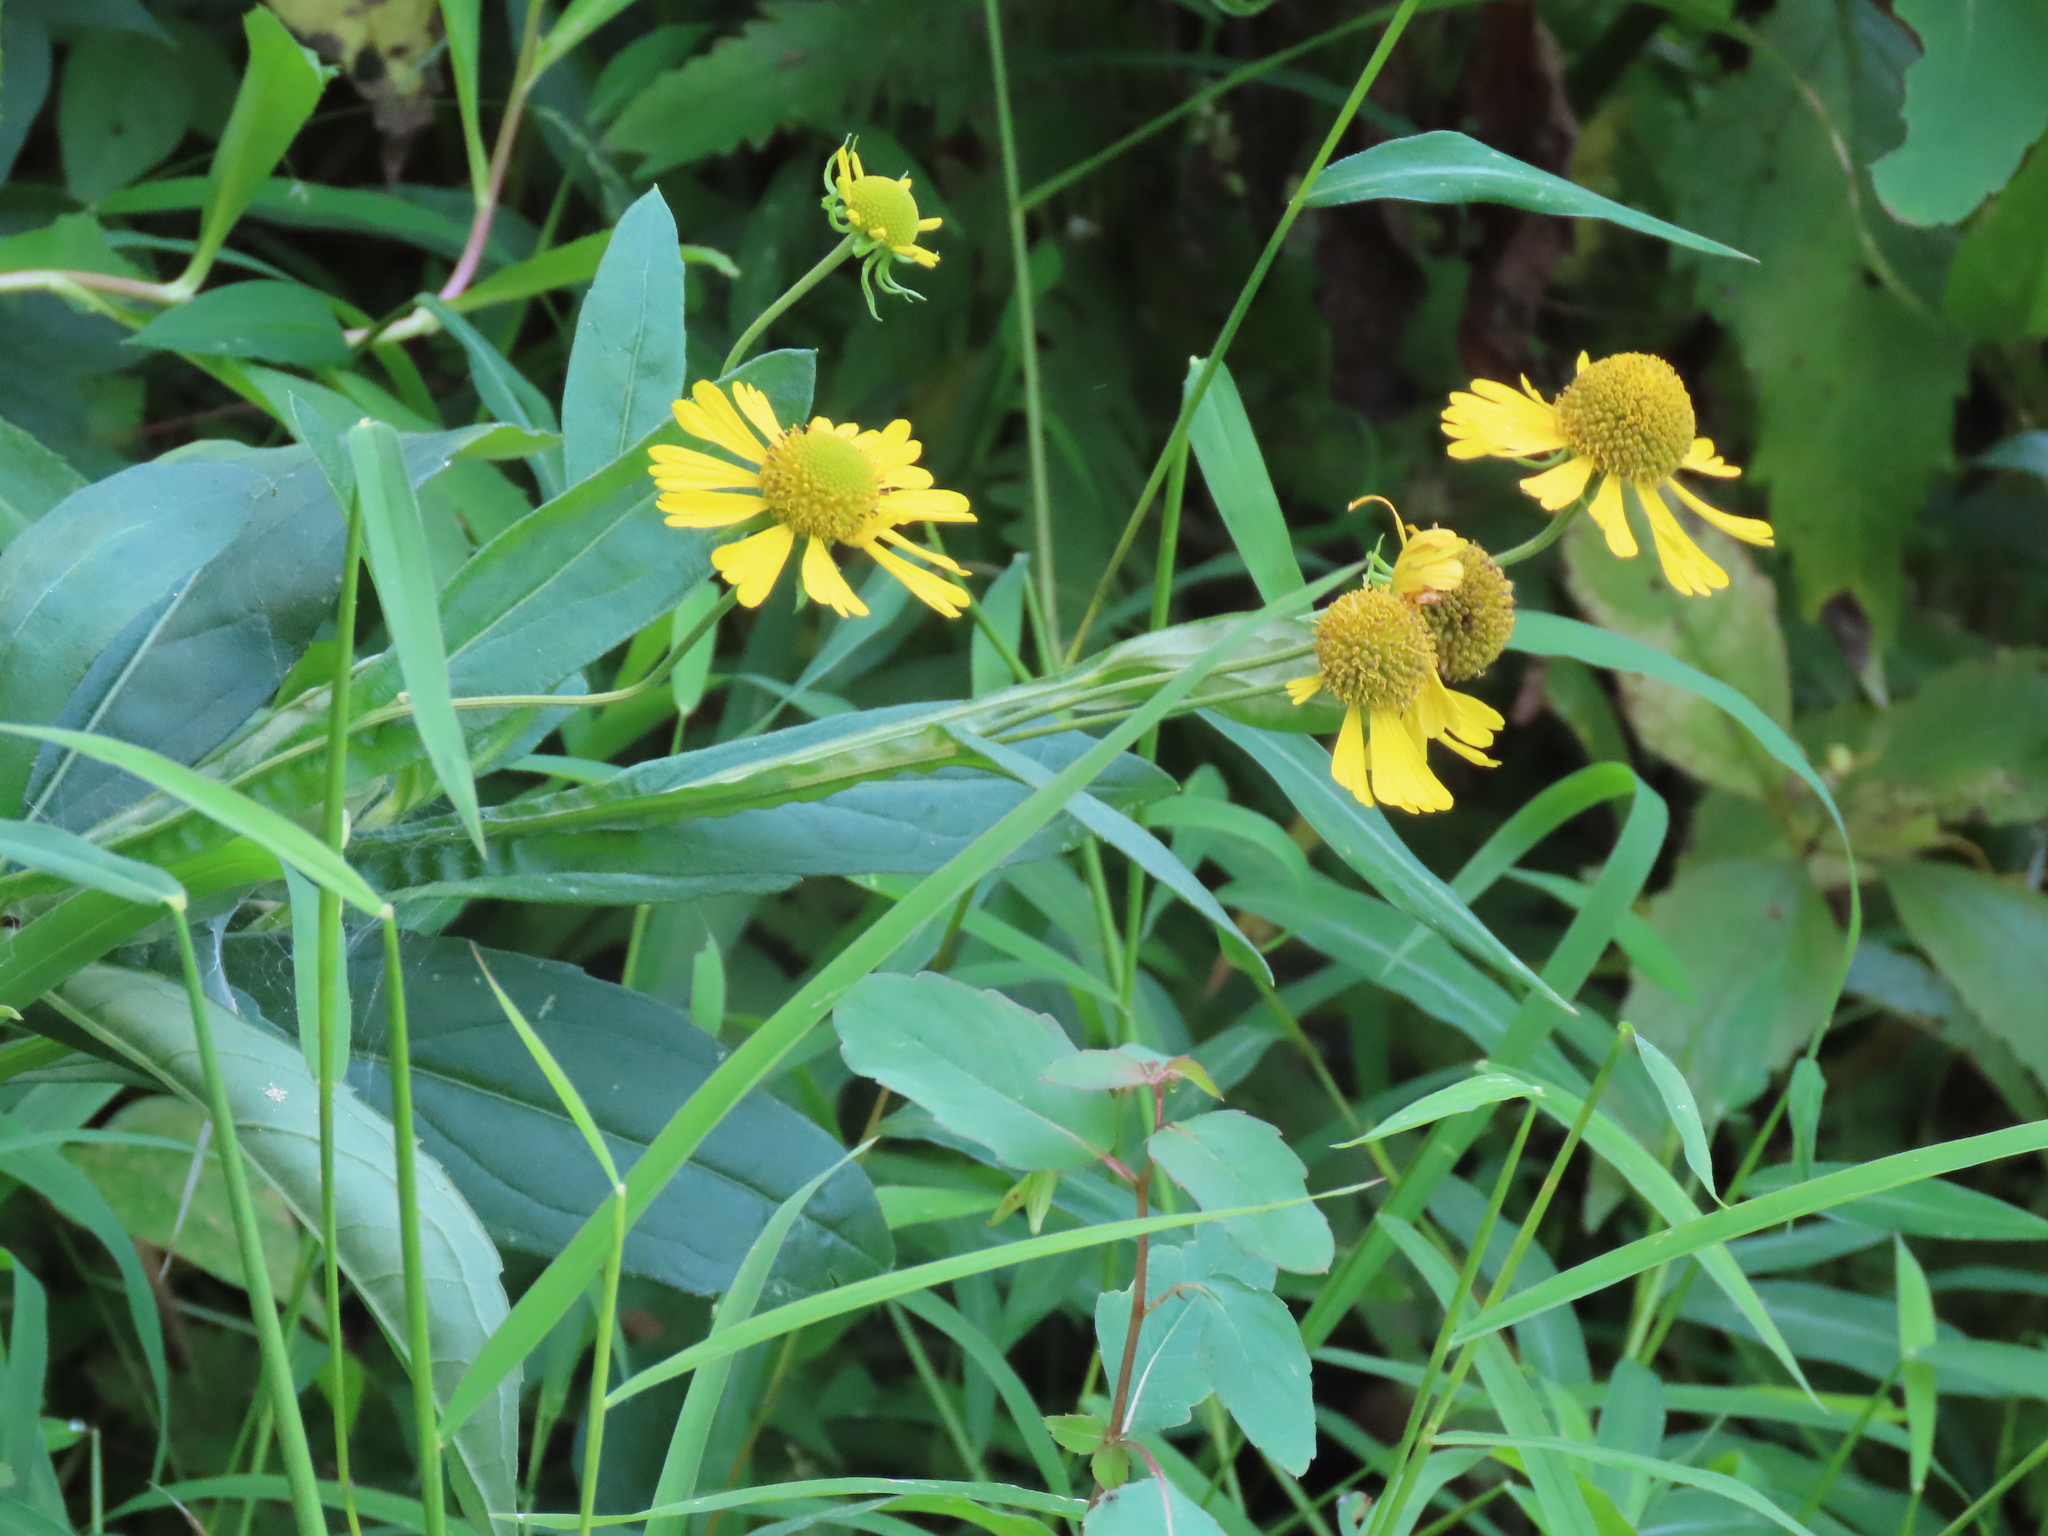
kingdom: Plantae
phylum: Tracheophyta
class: Magnoliopsida
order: Asterales
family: Asteraceae
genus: Helenium
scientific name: Helenium autumnale
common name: Sneezeweed
